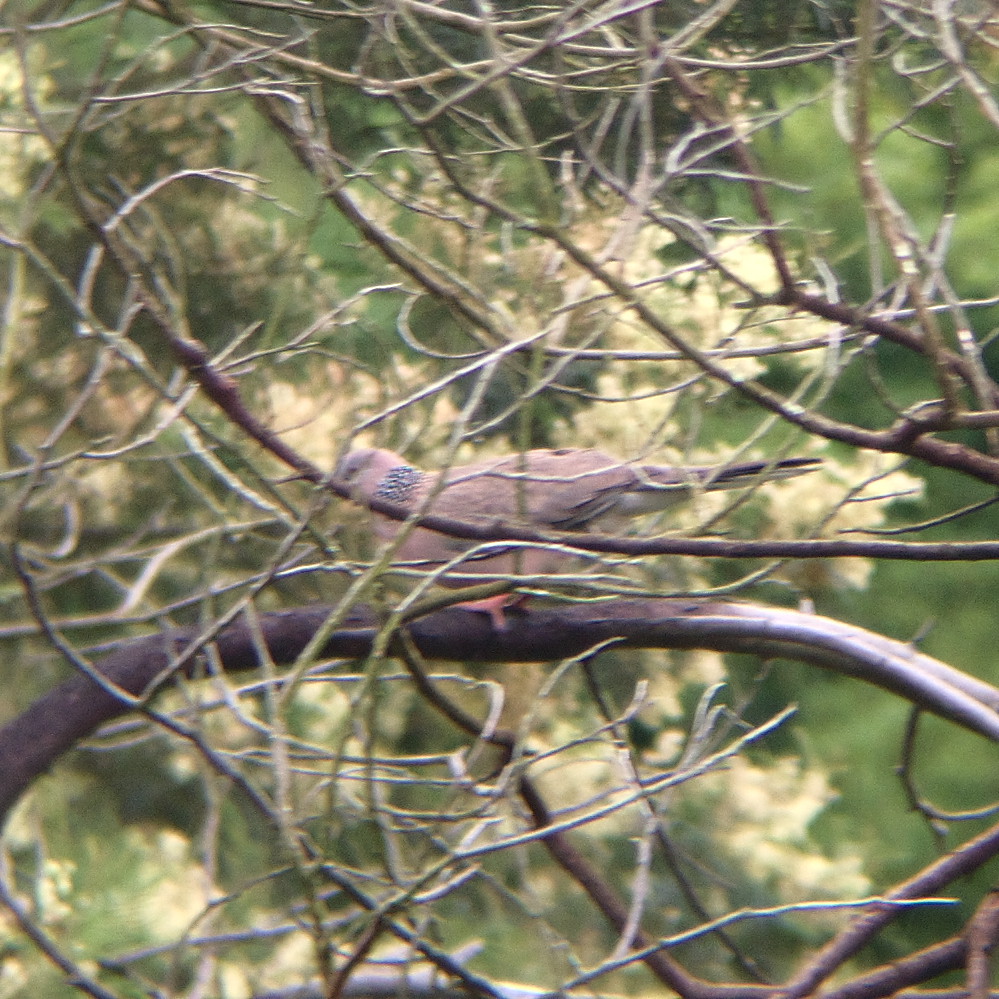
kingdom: Animalia
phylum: Chordata
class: Aves
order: Columbiformes
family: Columbidae
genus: Spilopelia
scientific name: Spilopelia chinensis
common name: Spotted dove
